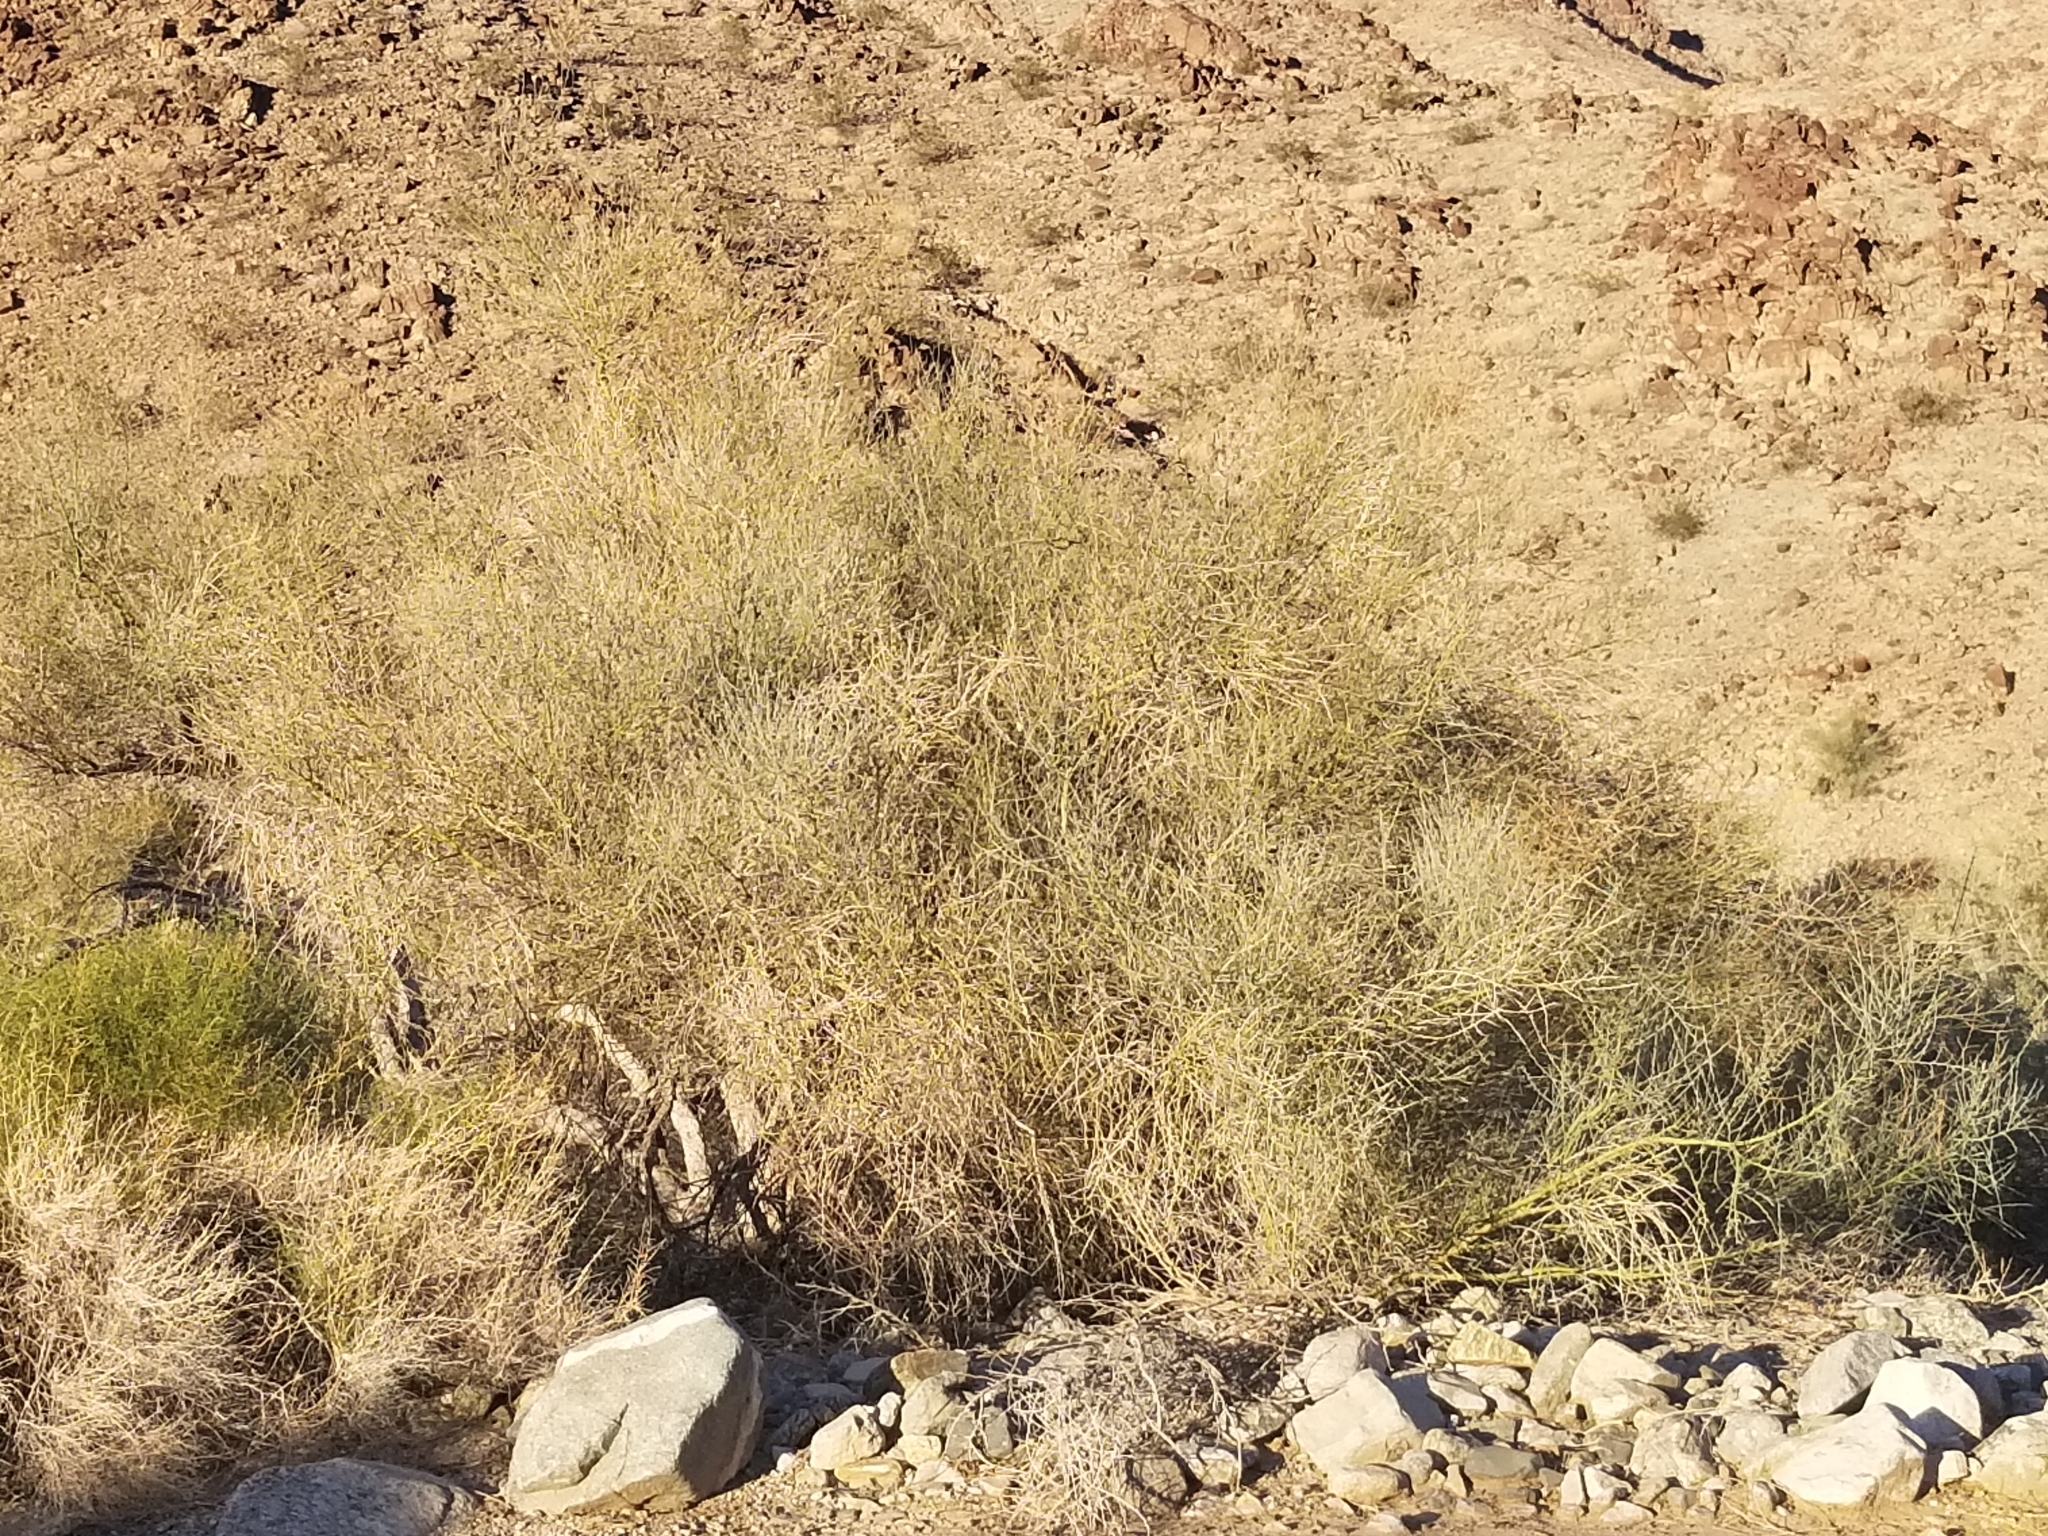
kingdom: Plantae
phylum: Tracheophyta
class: Magnoliopsida
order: Fabales
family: Fabaceae
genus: Parkinsonia
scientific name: Parkinsonia florida
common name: Blue paloverde
